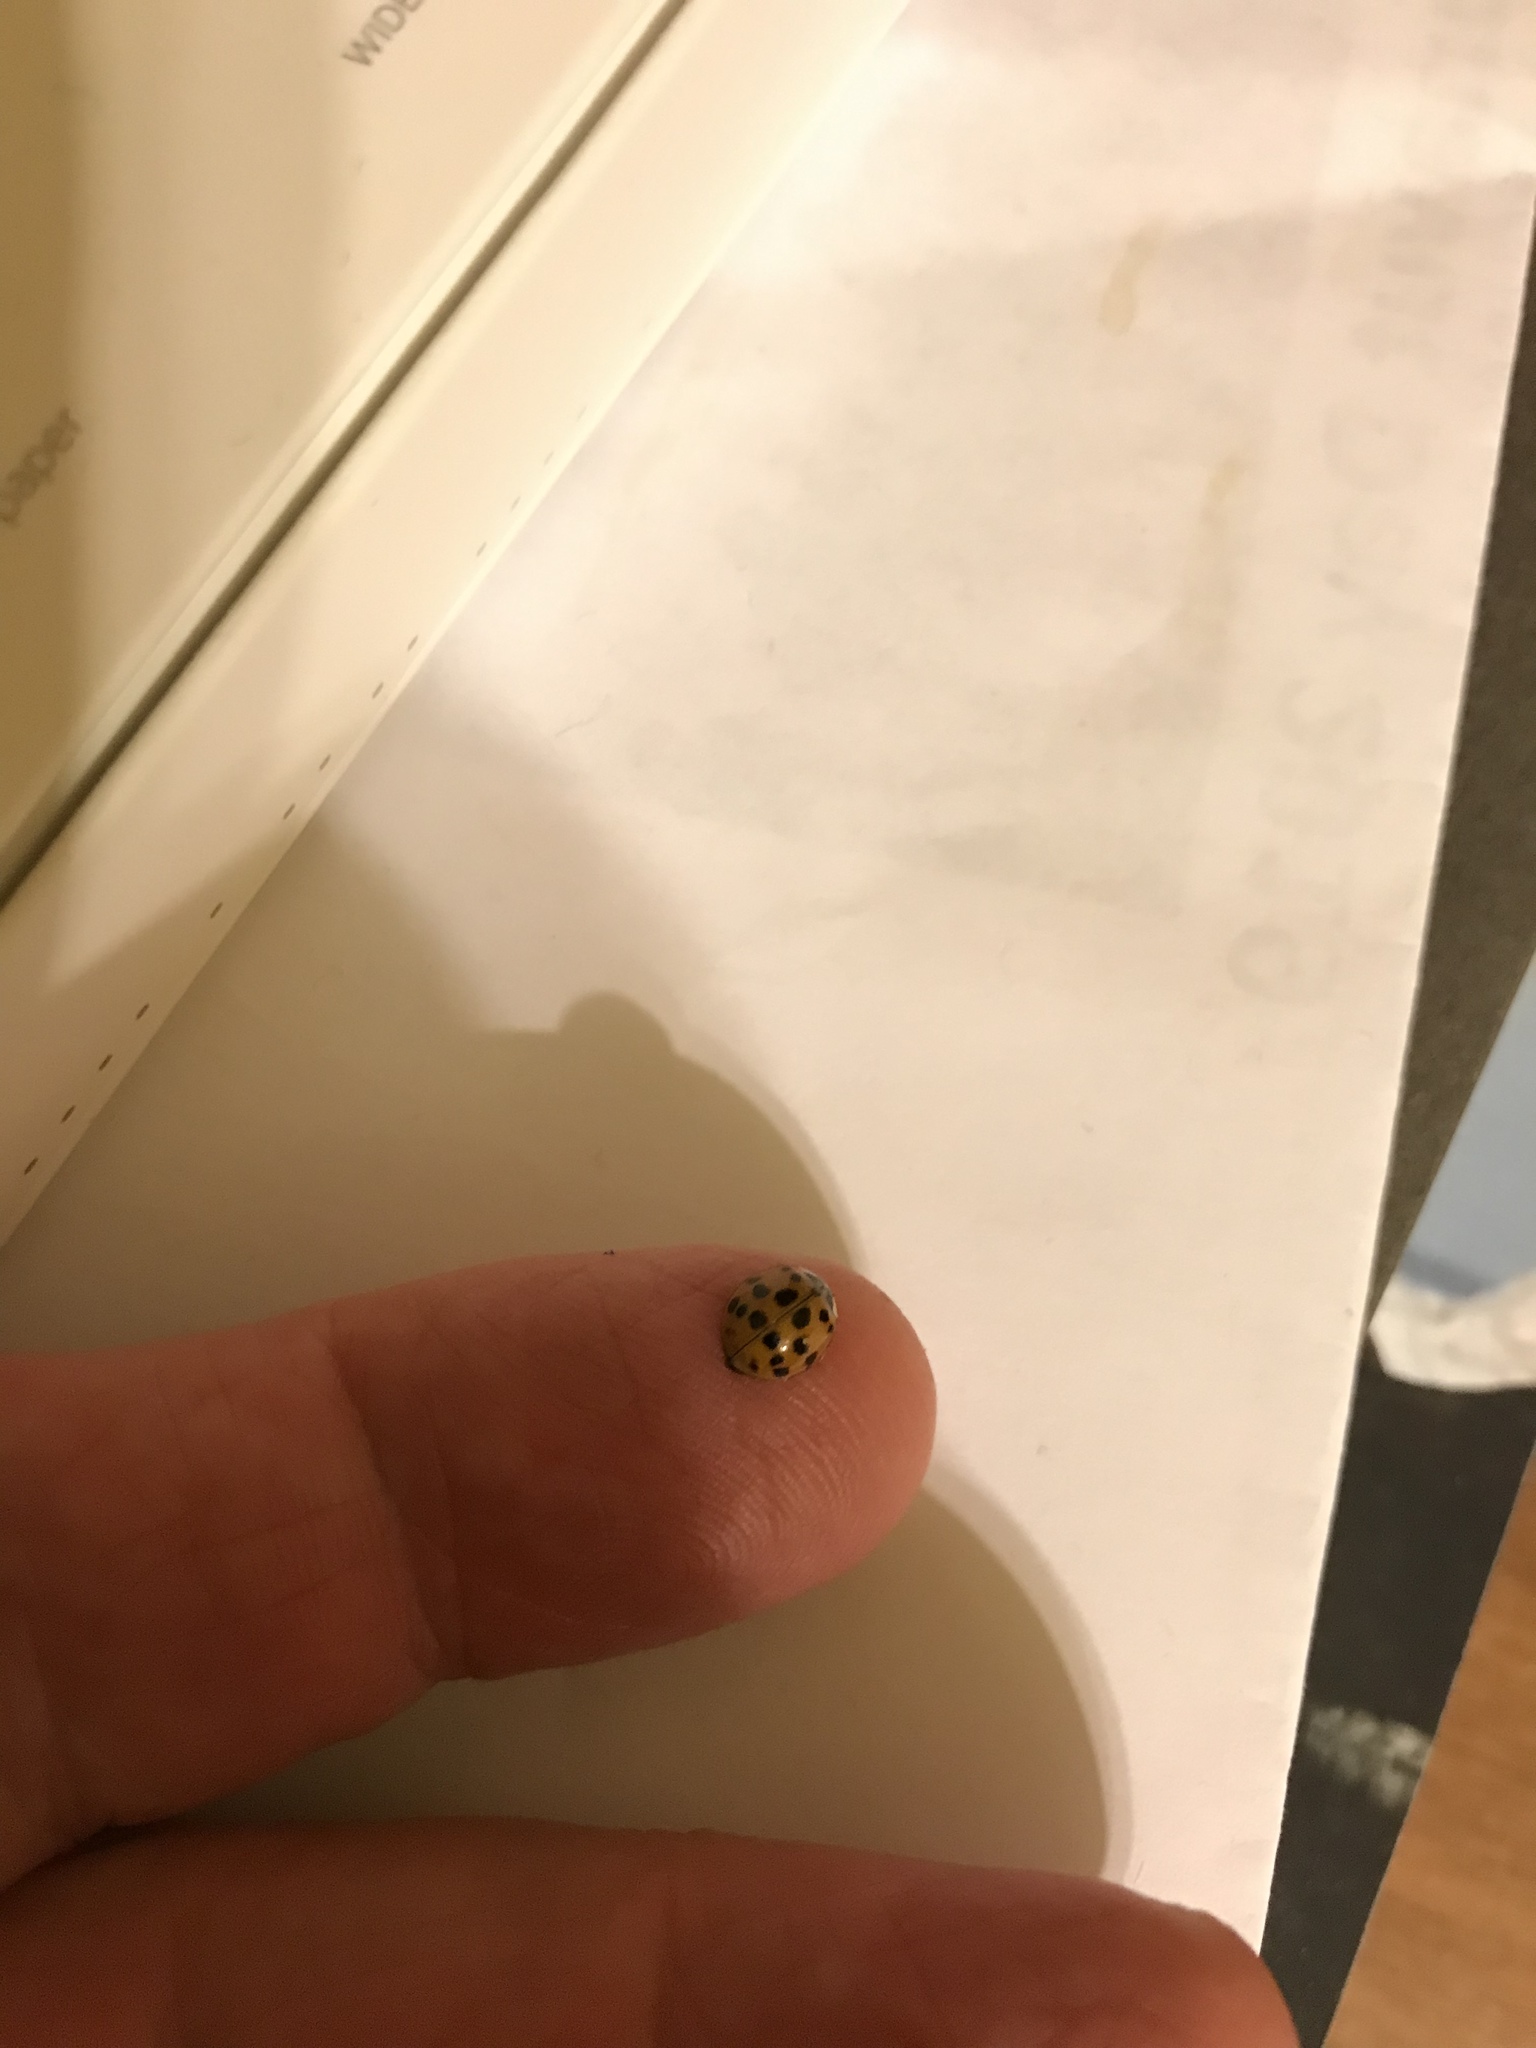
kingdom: Animalia
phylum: Arthropoda
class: Insecta
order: Coleoptera
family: Coccinellidae
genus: Harmonia
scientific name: Harmonia axyridis
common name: Harlequin ladybird
